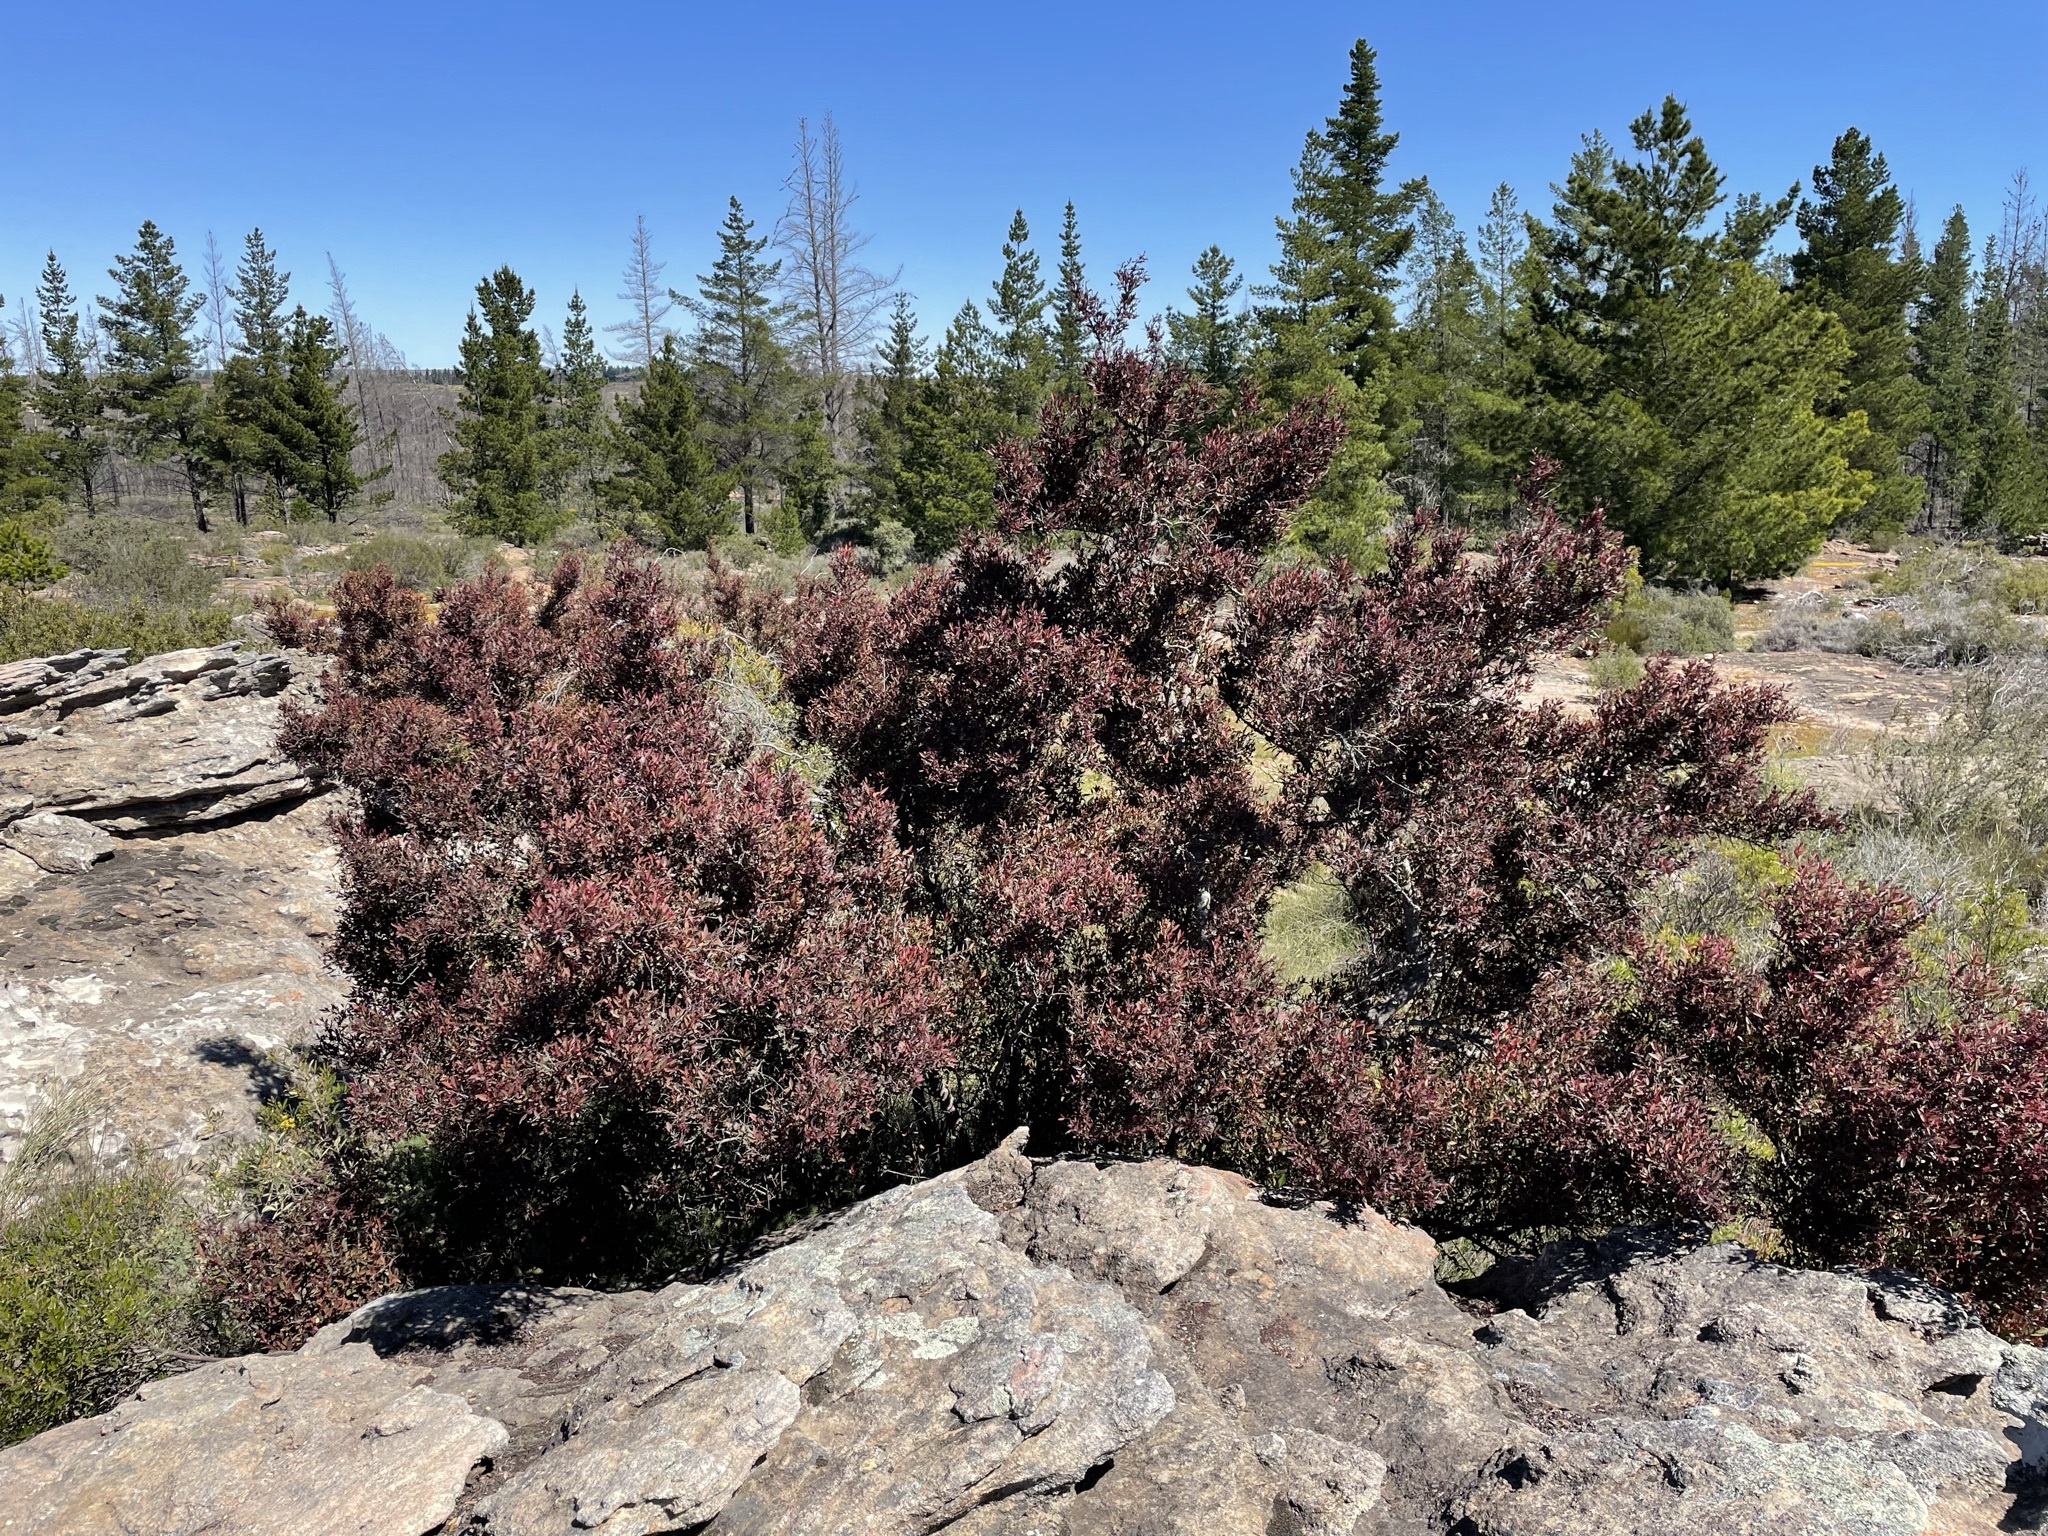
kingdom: Plantae
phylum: Tracheophyta
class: Magnoliopsida
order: Celastrales
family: Celastraceae
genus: Gymnosporia
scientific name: Gymnosporia acuminata
